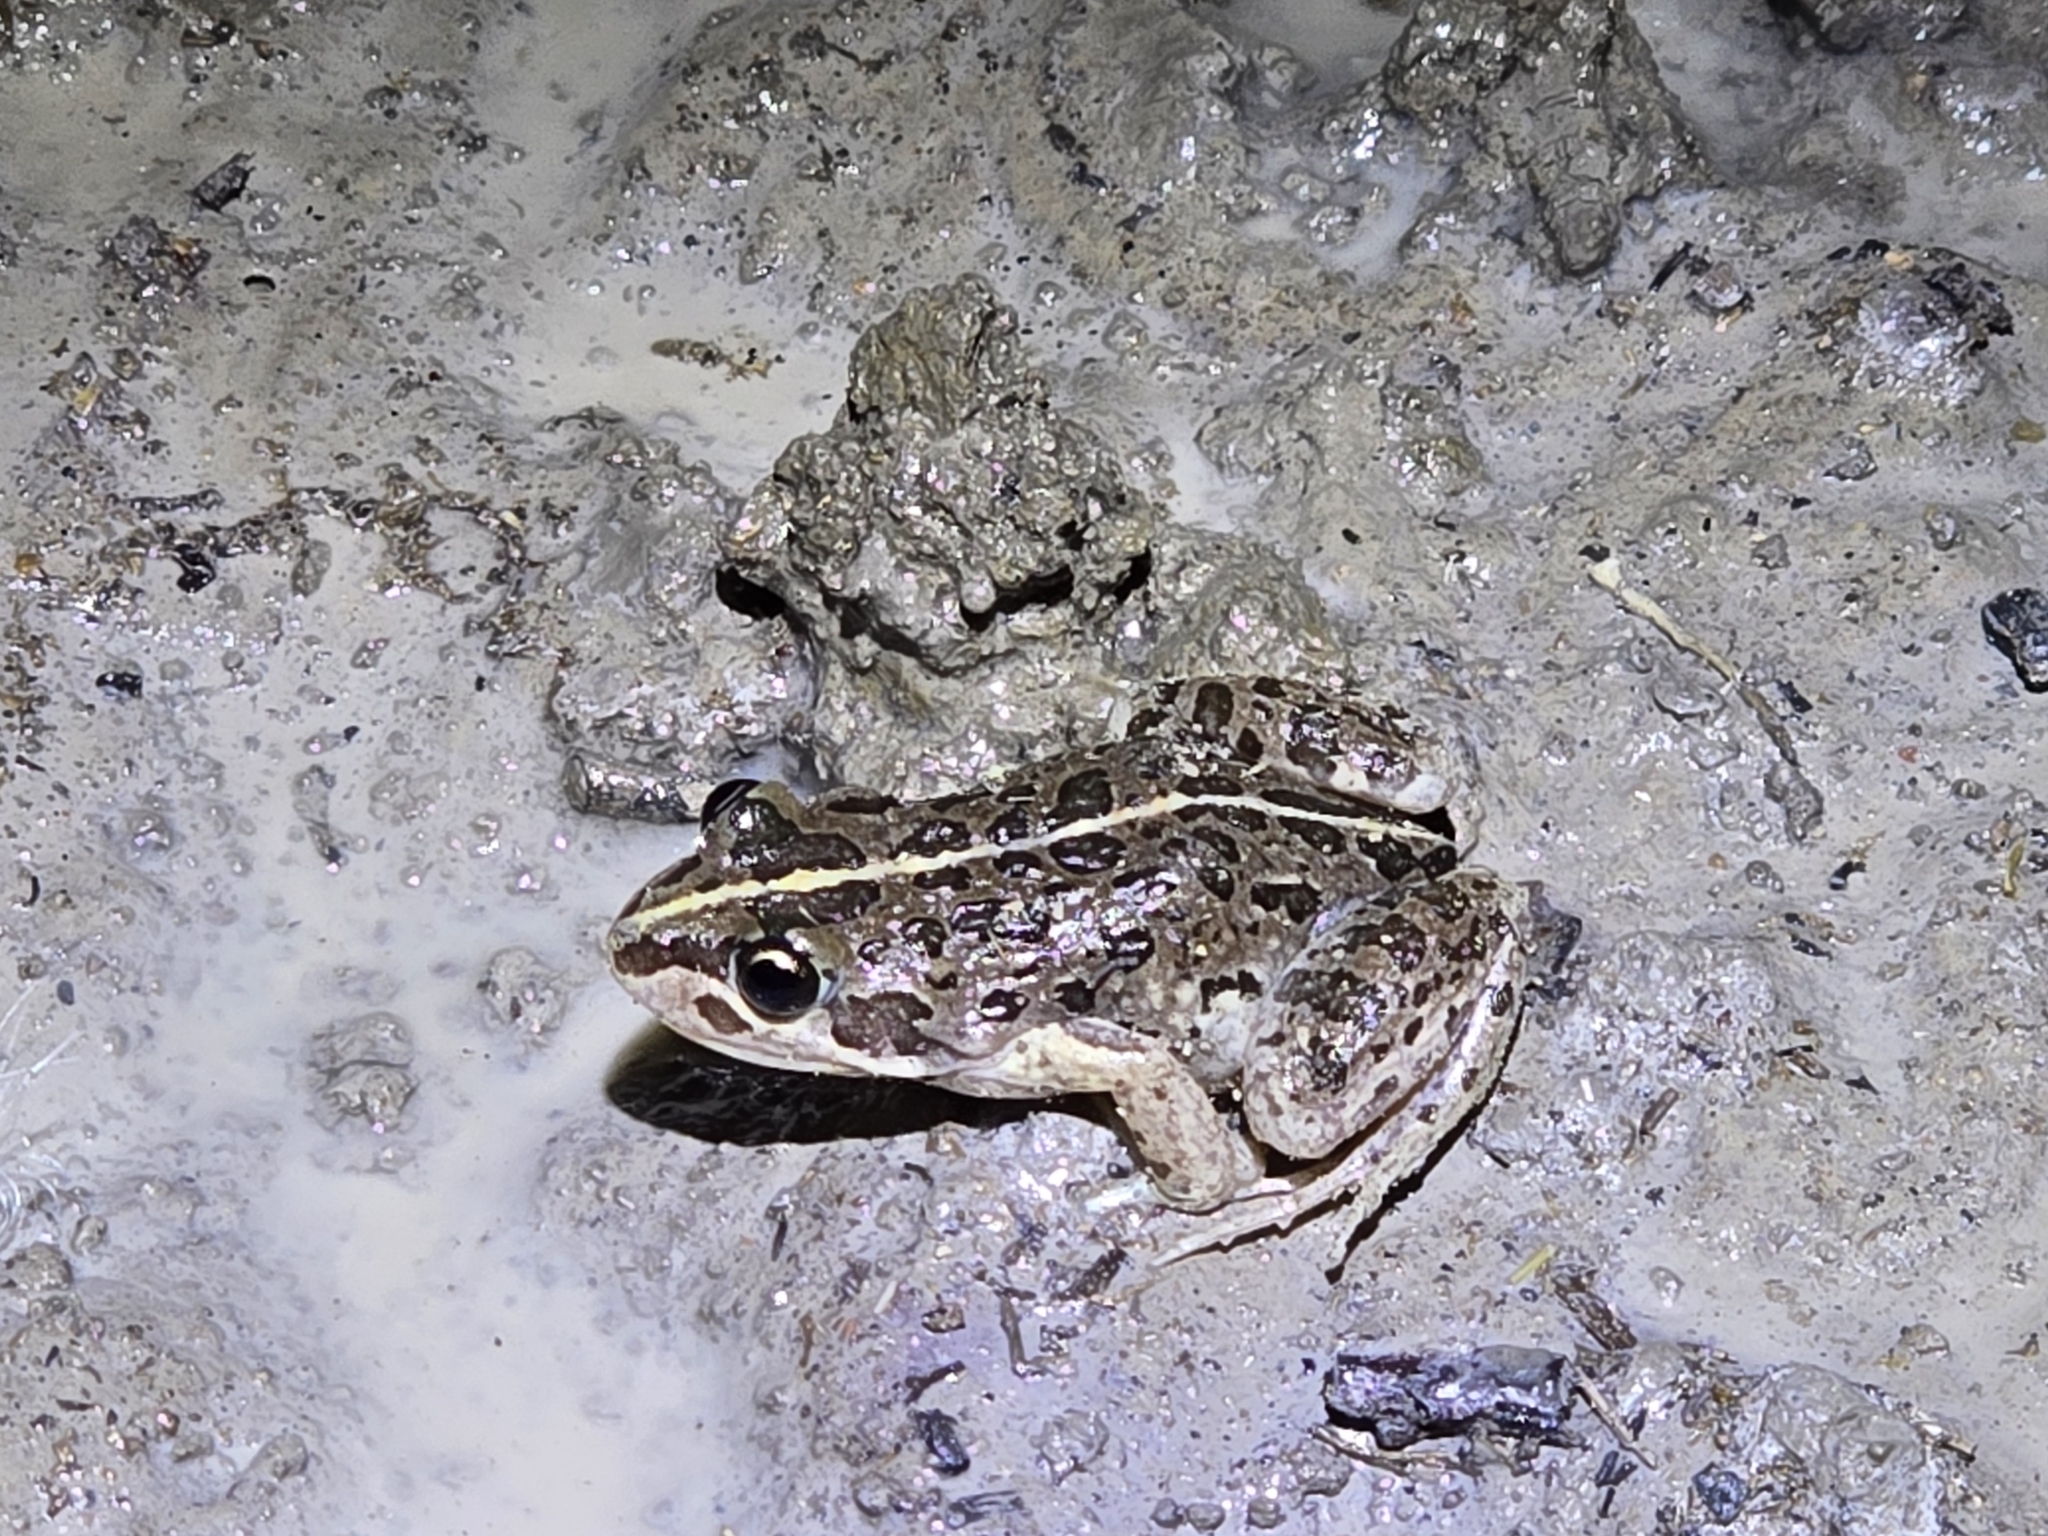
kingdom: Animalia
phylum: Chordata
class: Amphibia
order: Anura
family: Limnodynastidae
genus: Limnodynastes
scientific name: Limnodynastes tasmaniensis
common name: Spotted marsh frog
